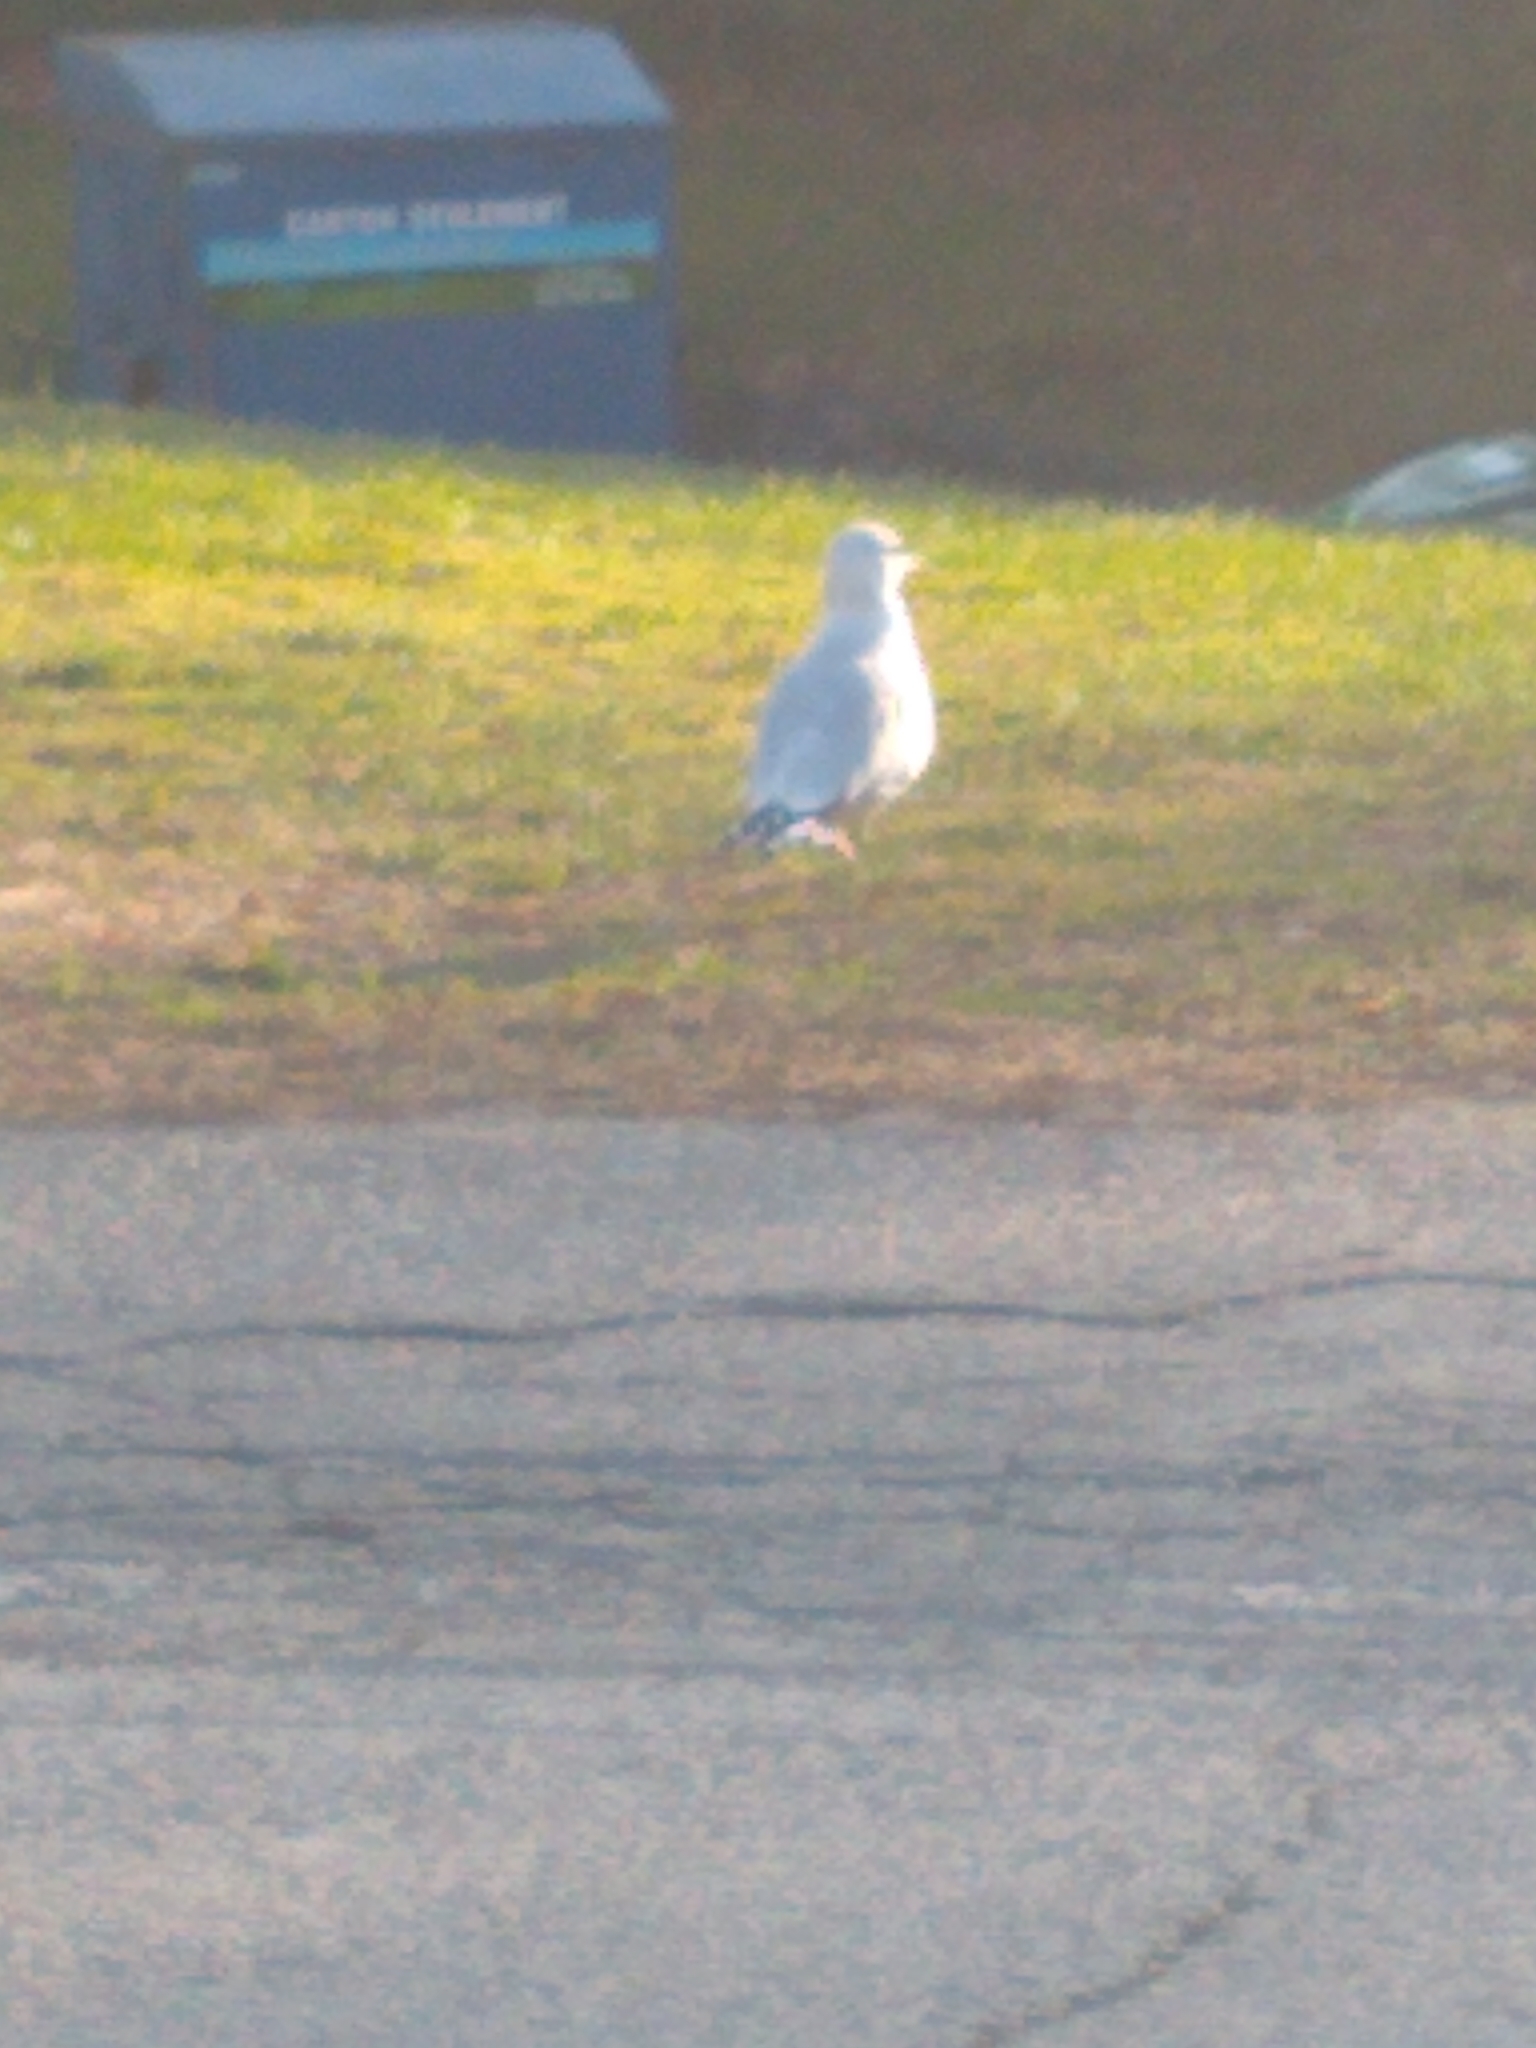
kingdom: Animalia
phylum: Chordata
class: Aves
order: Charadriiformes
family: Laridae
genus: Larus
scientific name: Larus delawarensis
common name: Ring-billed gull
